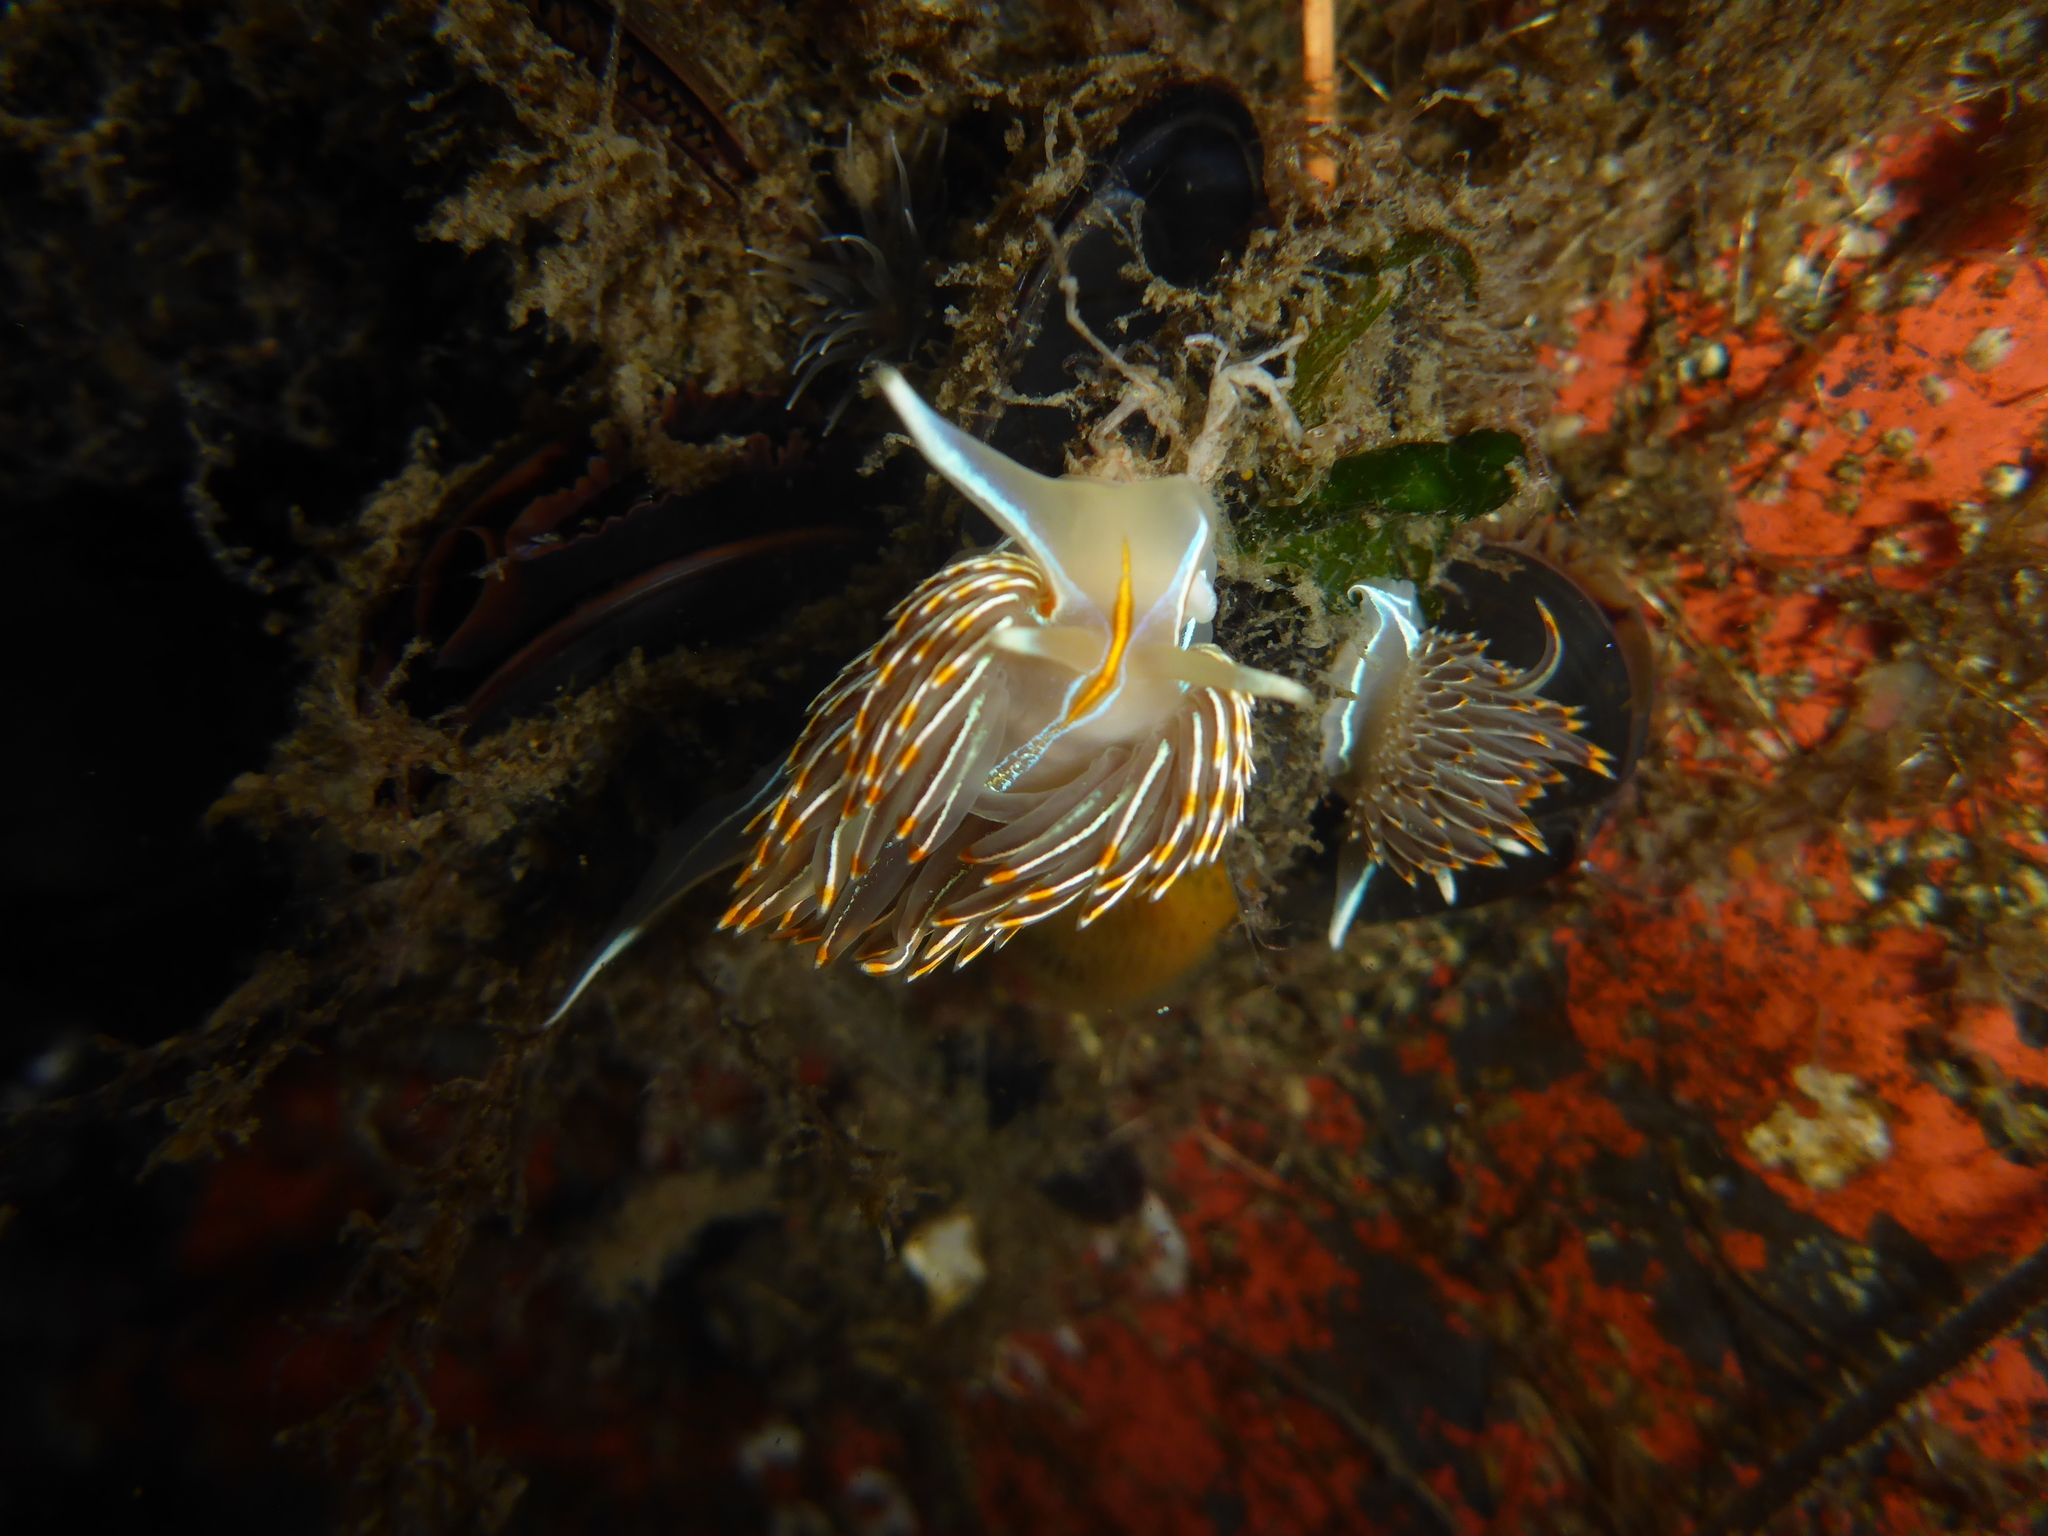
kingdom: Animalia
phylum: Mollusca
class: Gastropoda
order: Nudibranchia
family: Myrrhinidae
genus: Hermissenda
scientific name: Hermissenda crassicornis
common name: Hermissenda
